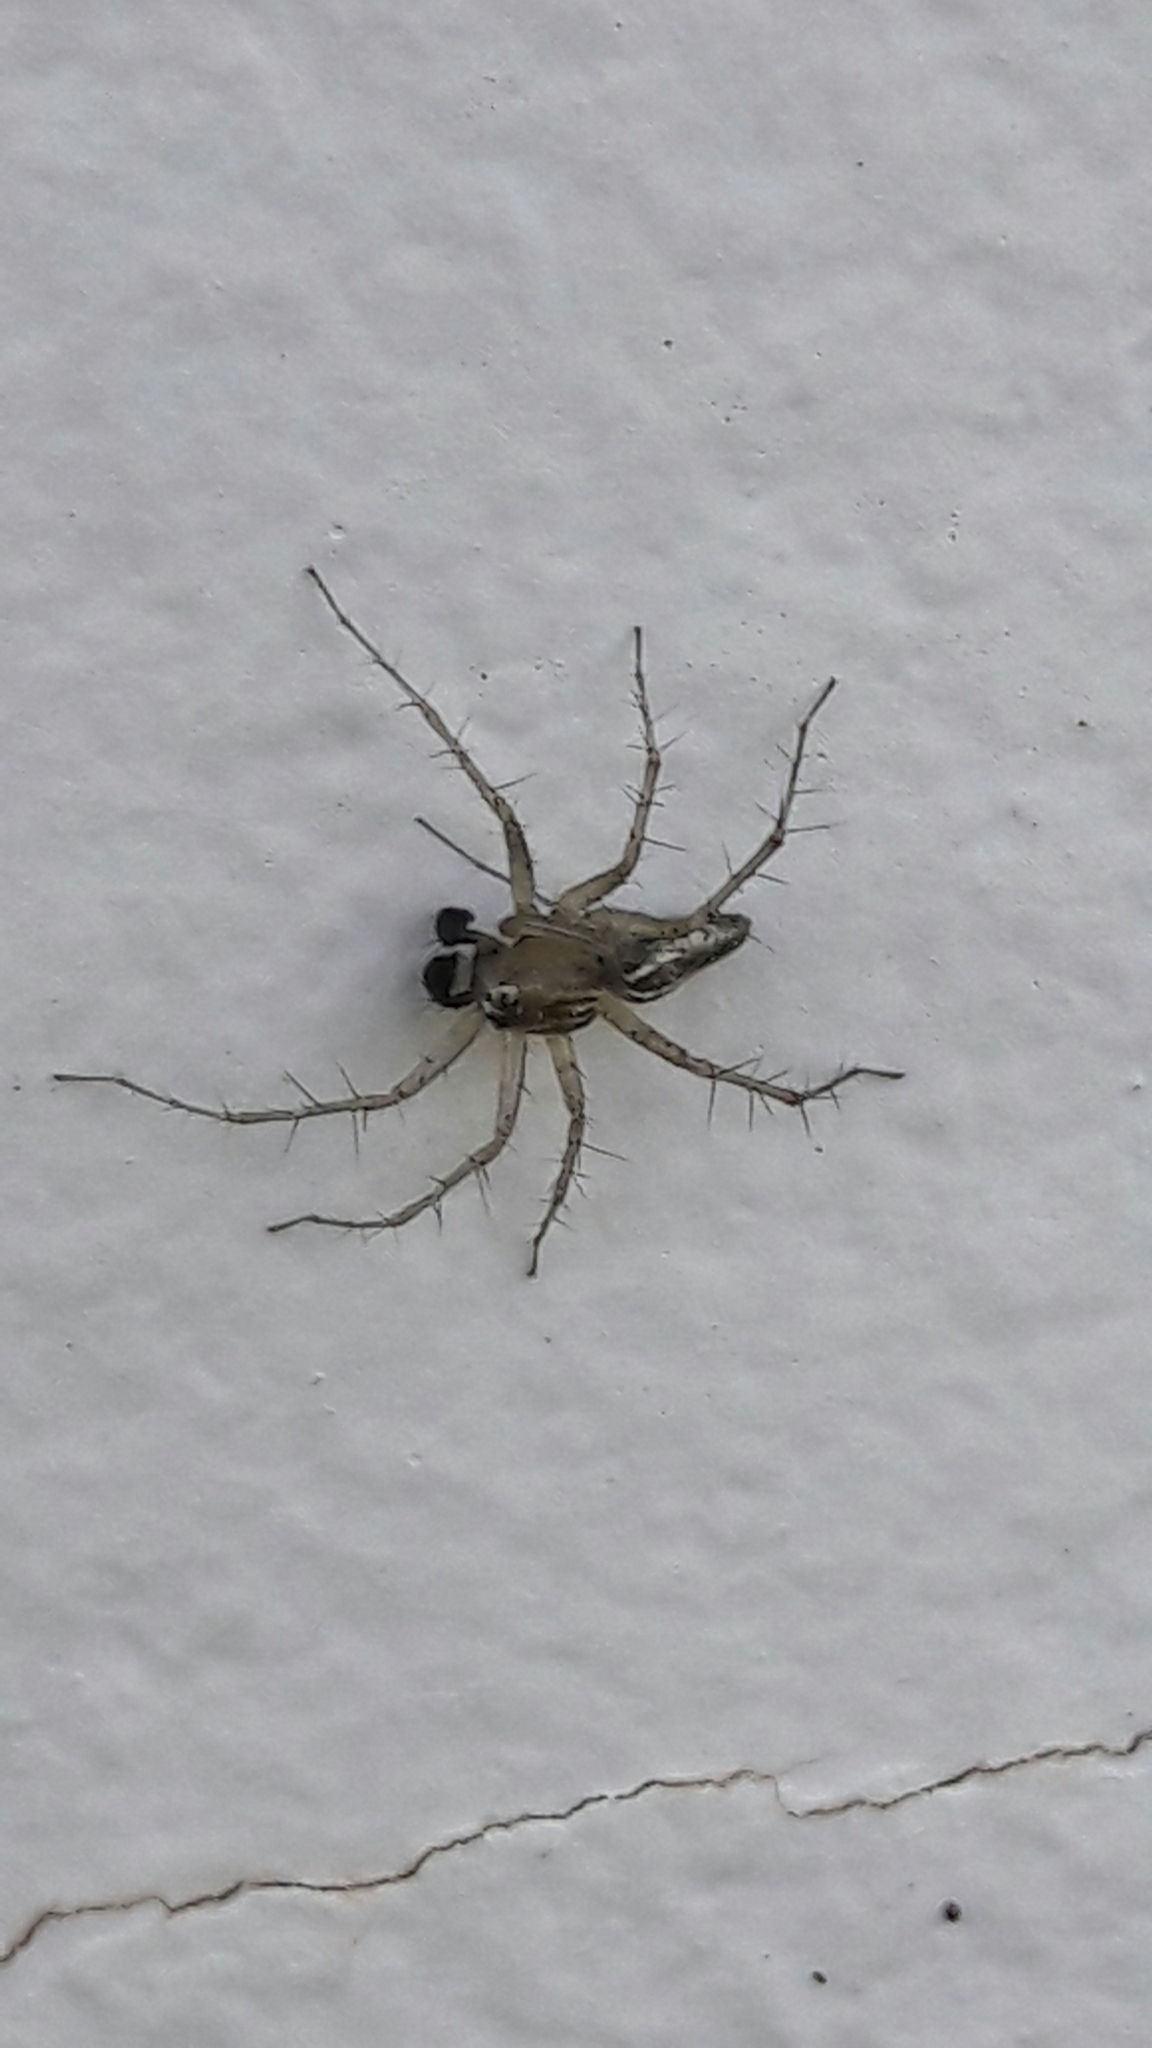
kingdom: Animalia
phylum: Arthropoda
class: Arachnida
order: Araneae
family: Oxyopidae
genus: Oxyopes
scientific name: Oxyopes salticus
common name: Lynx spiders
